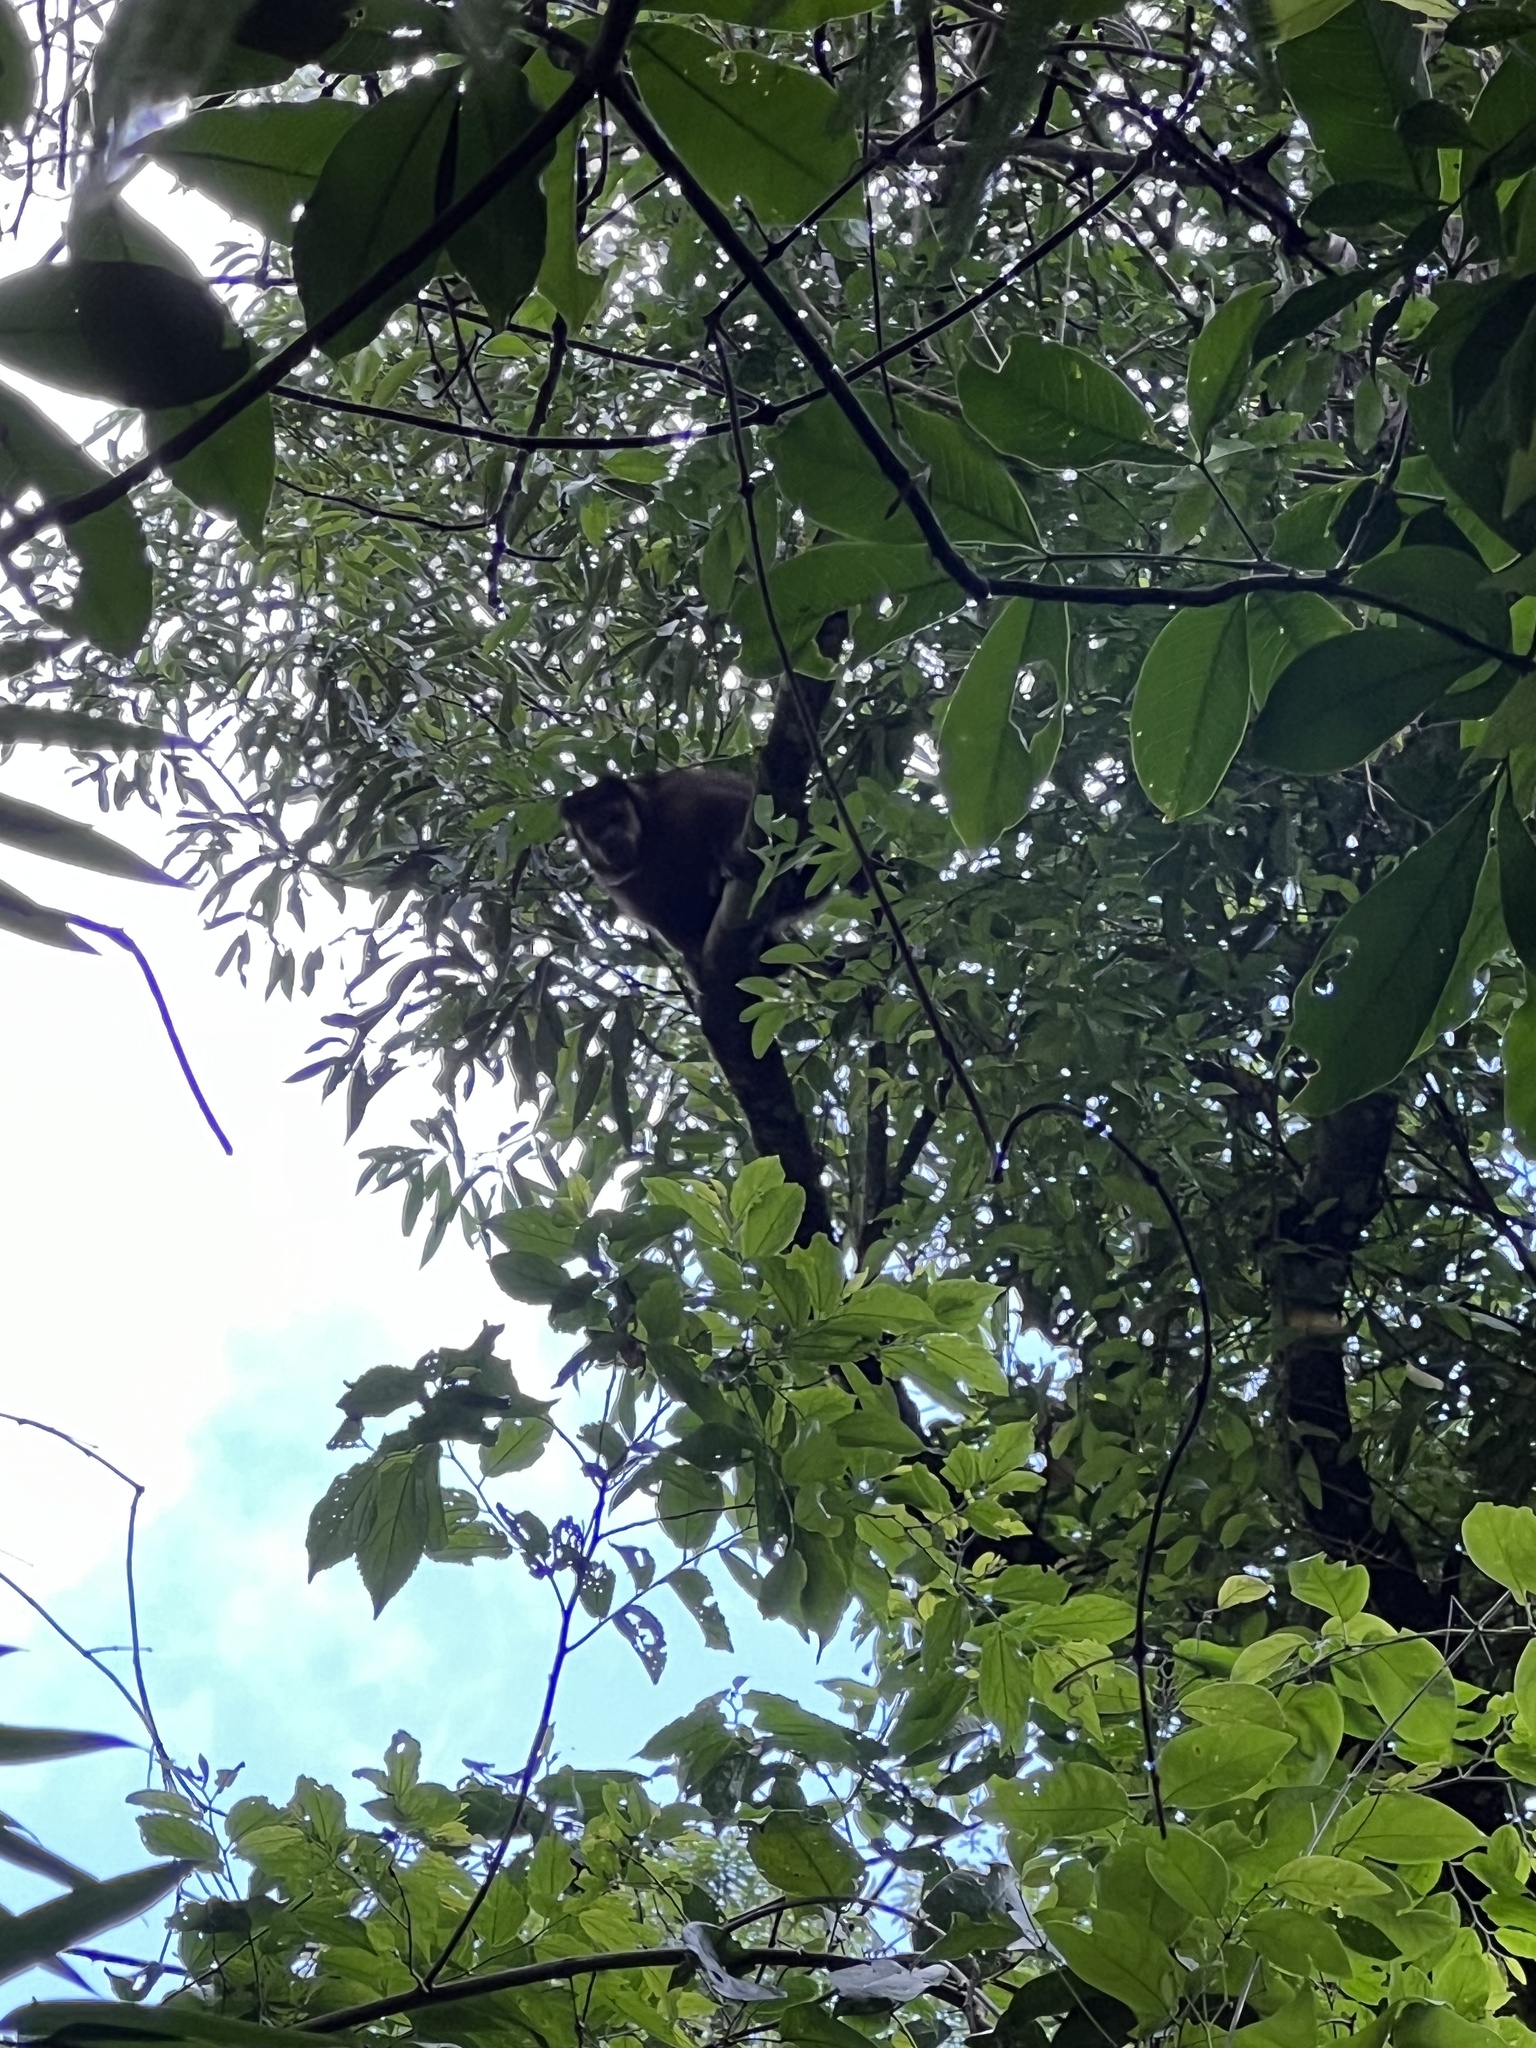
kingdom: Animalia
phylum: Chordata
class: Mammalia
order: Primates
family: Cebidae
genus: Sapajus
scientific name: Sapajus nigritus
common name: Black capuchin
